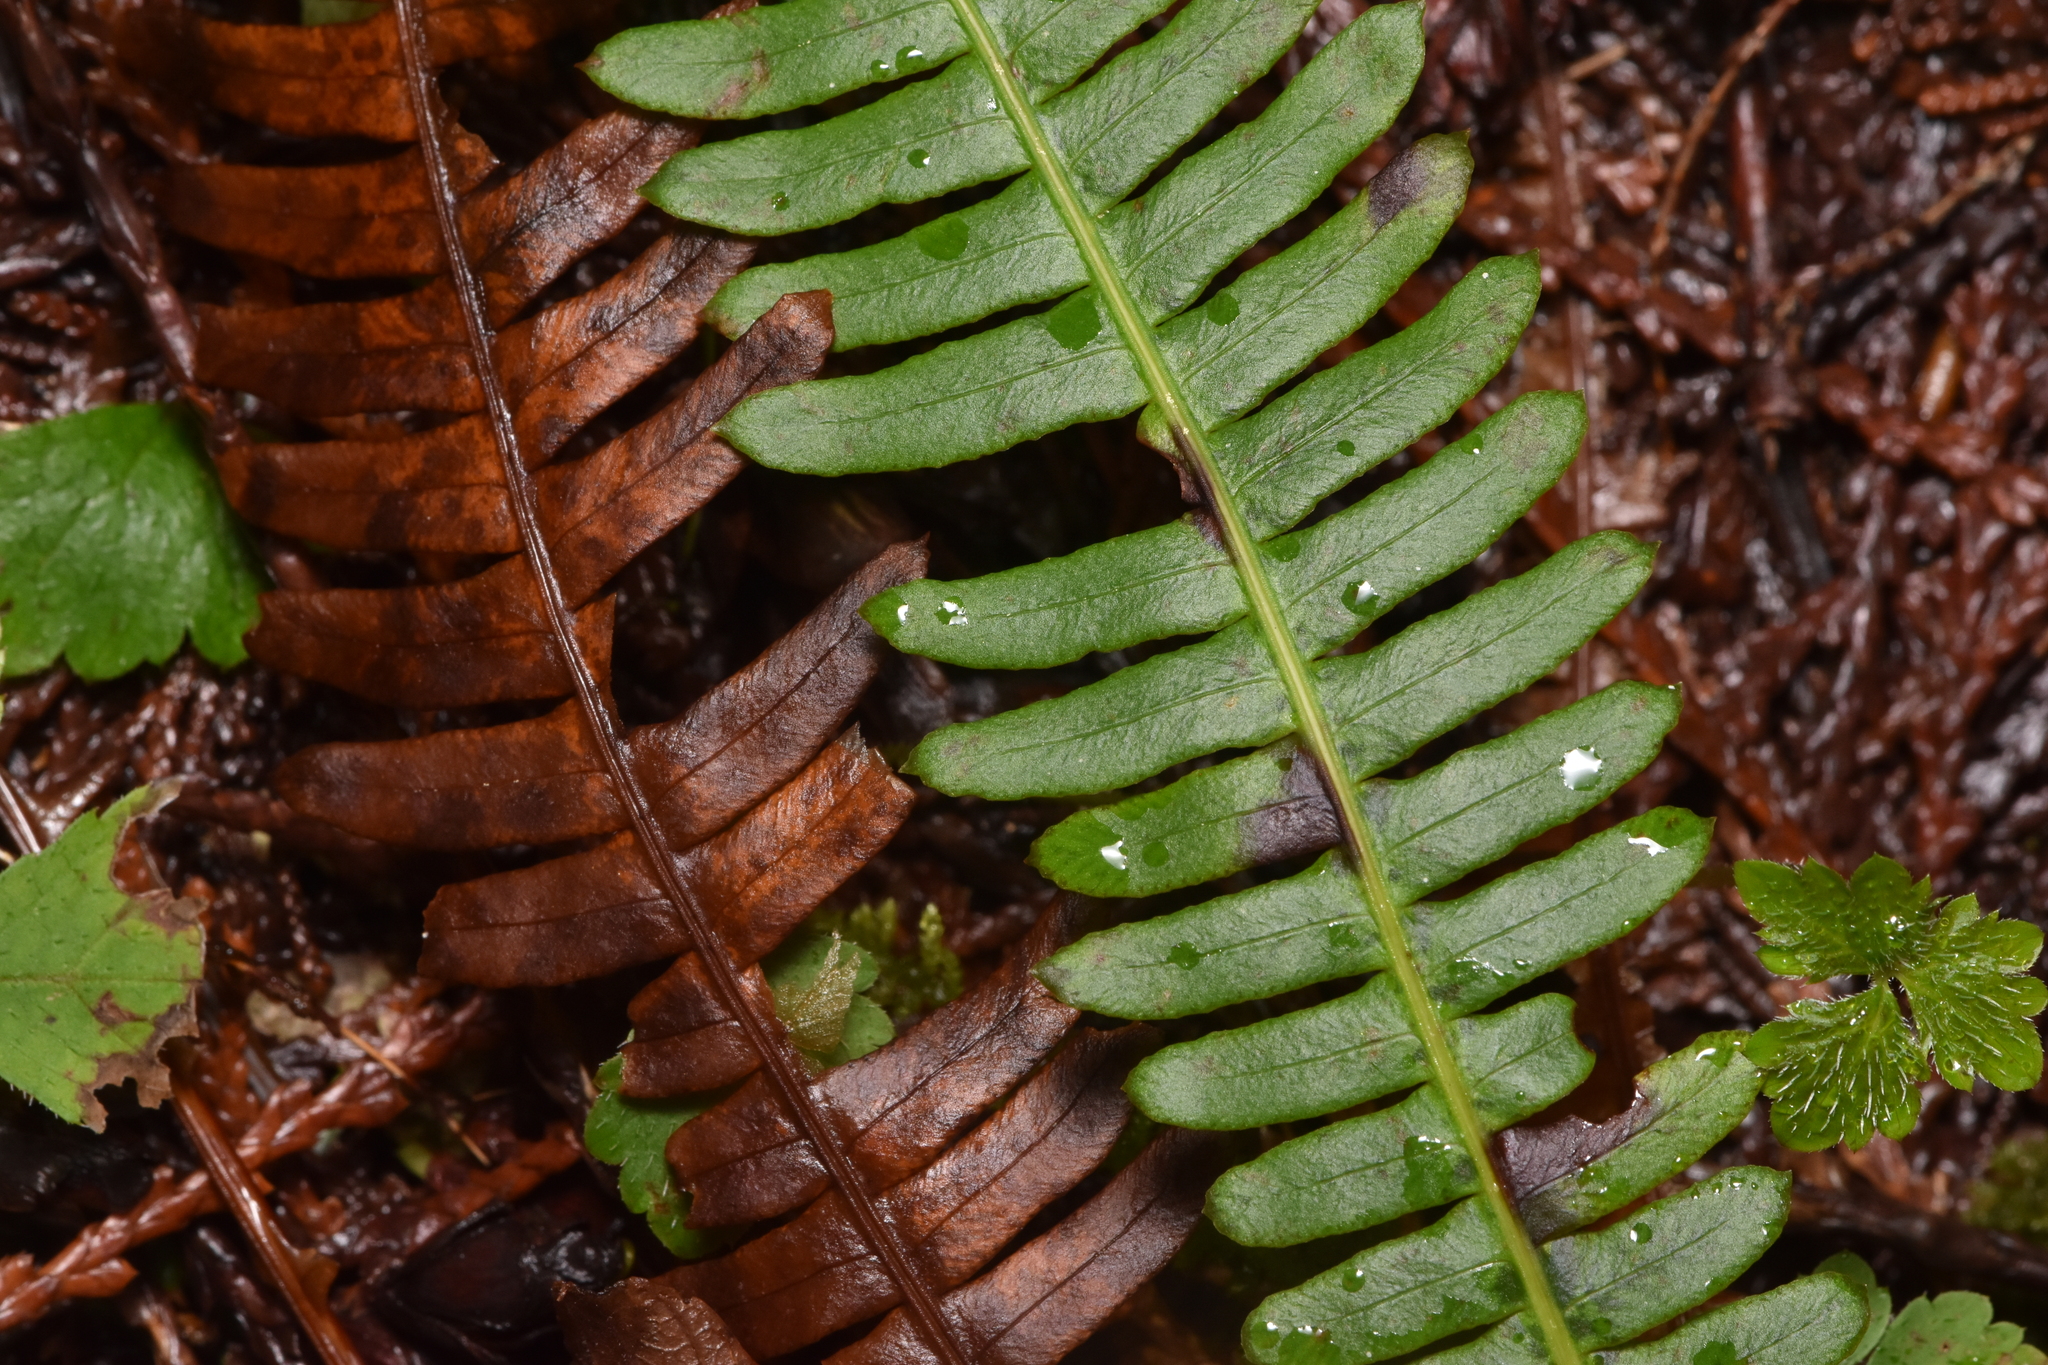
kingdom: Plantae
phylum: Tracheophyta
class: Polypodiopsida
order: Polypodiales
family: Blechnaceae
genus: Struthiopteris
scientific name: Struthiopteris spicant
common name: Deer fern
